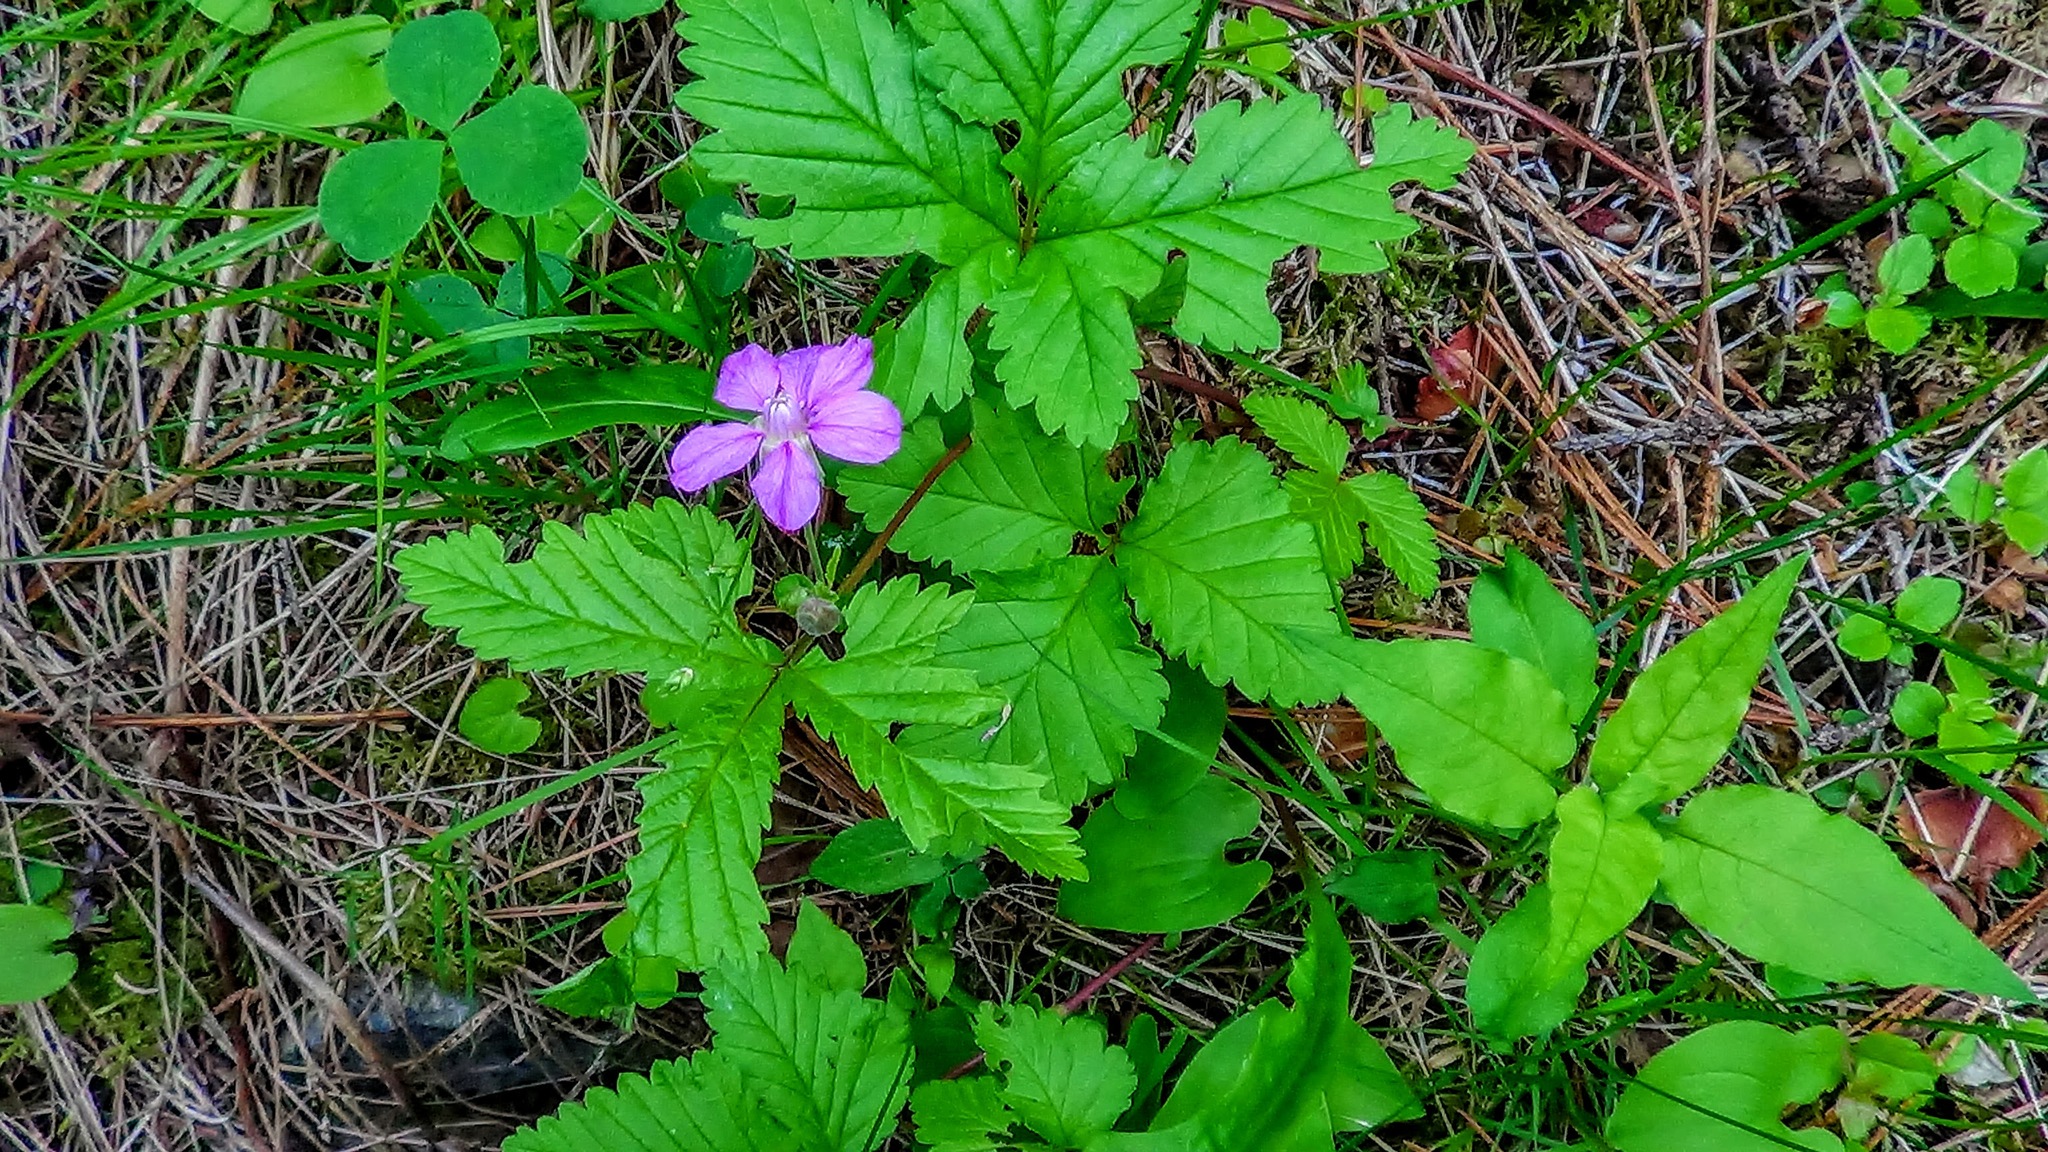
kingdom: Plantae
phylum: Tracheophyta
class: Magnoliopsida
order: Rosales
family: Rosaceae
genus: Rubus
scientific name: Rubus arcticus
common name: Arctic bramble
